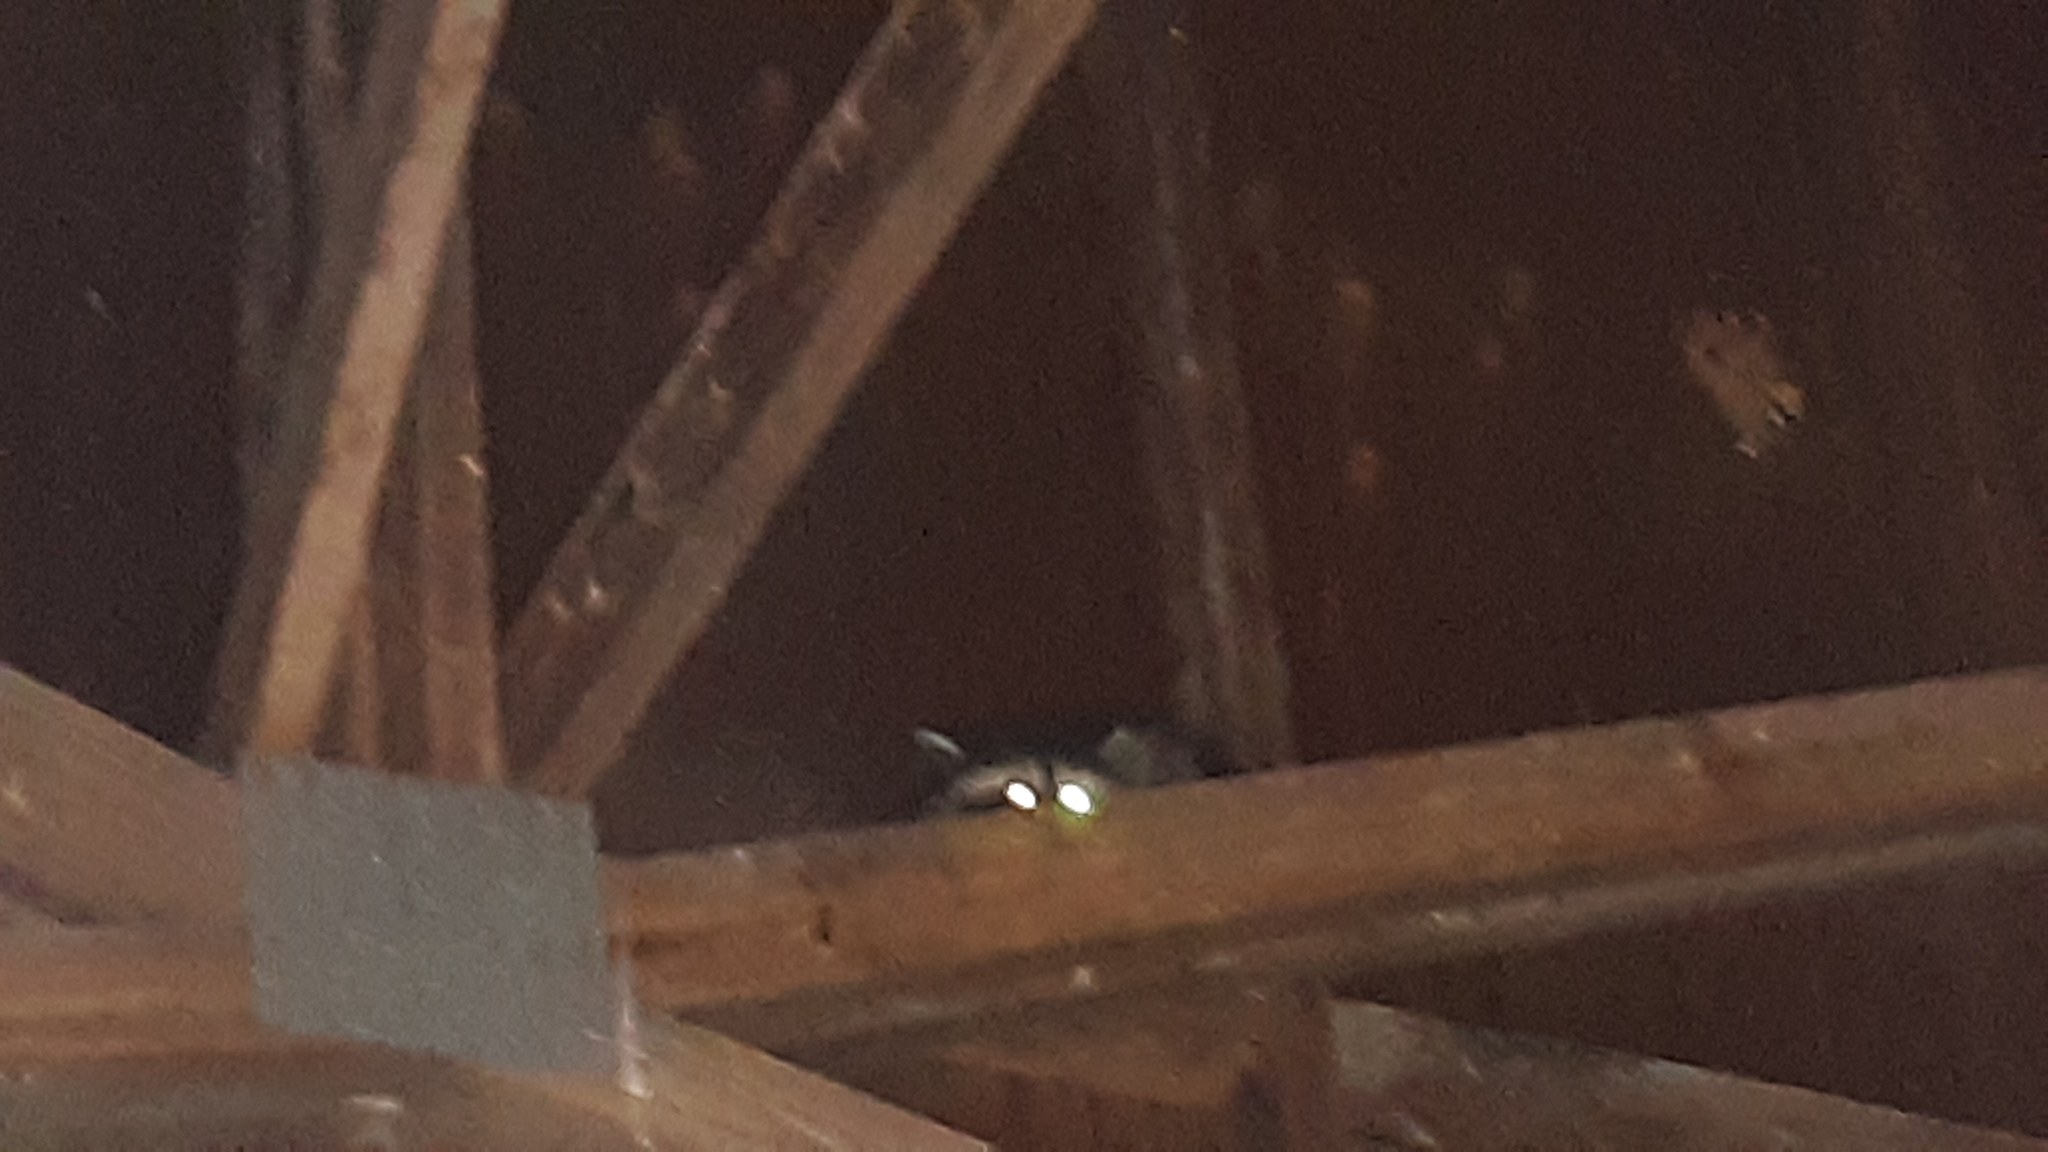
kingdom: Animalia
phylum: Chordata
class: Mammalia
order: Carnivora
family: Procyonidae
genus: Procyon
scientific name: Procyon lotor
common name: Raccoon
